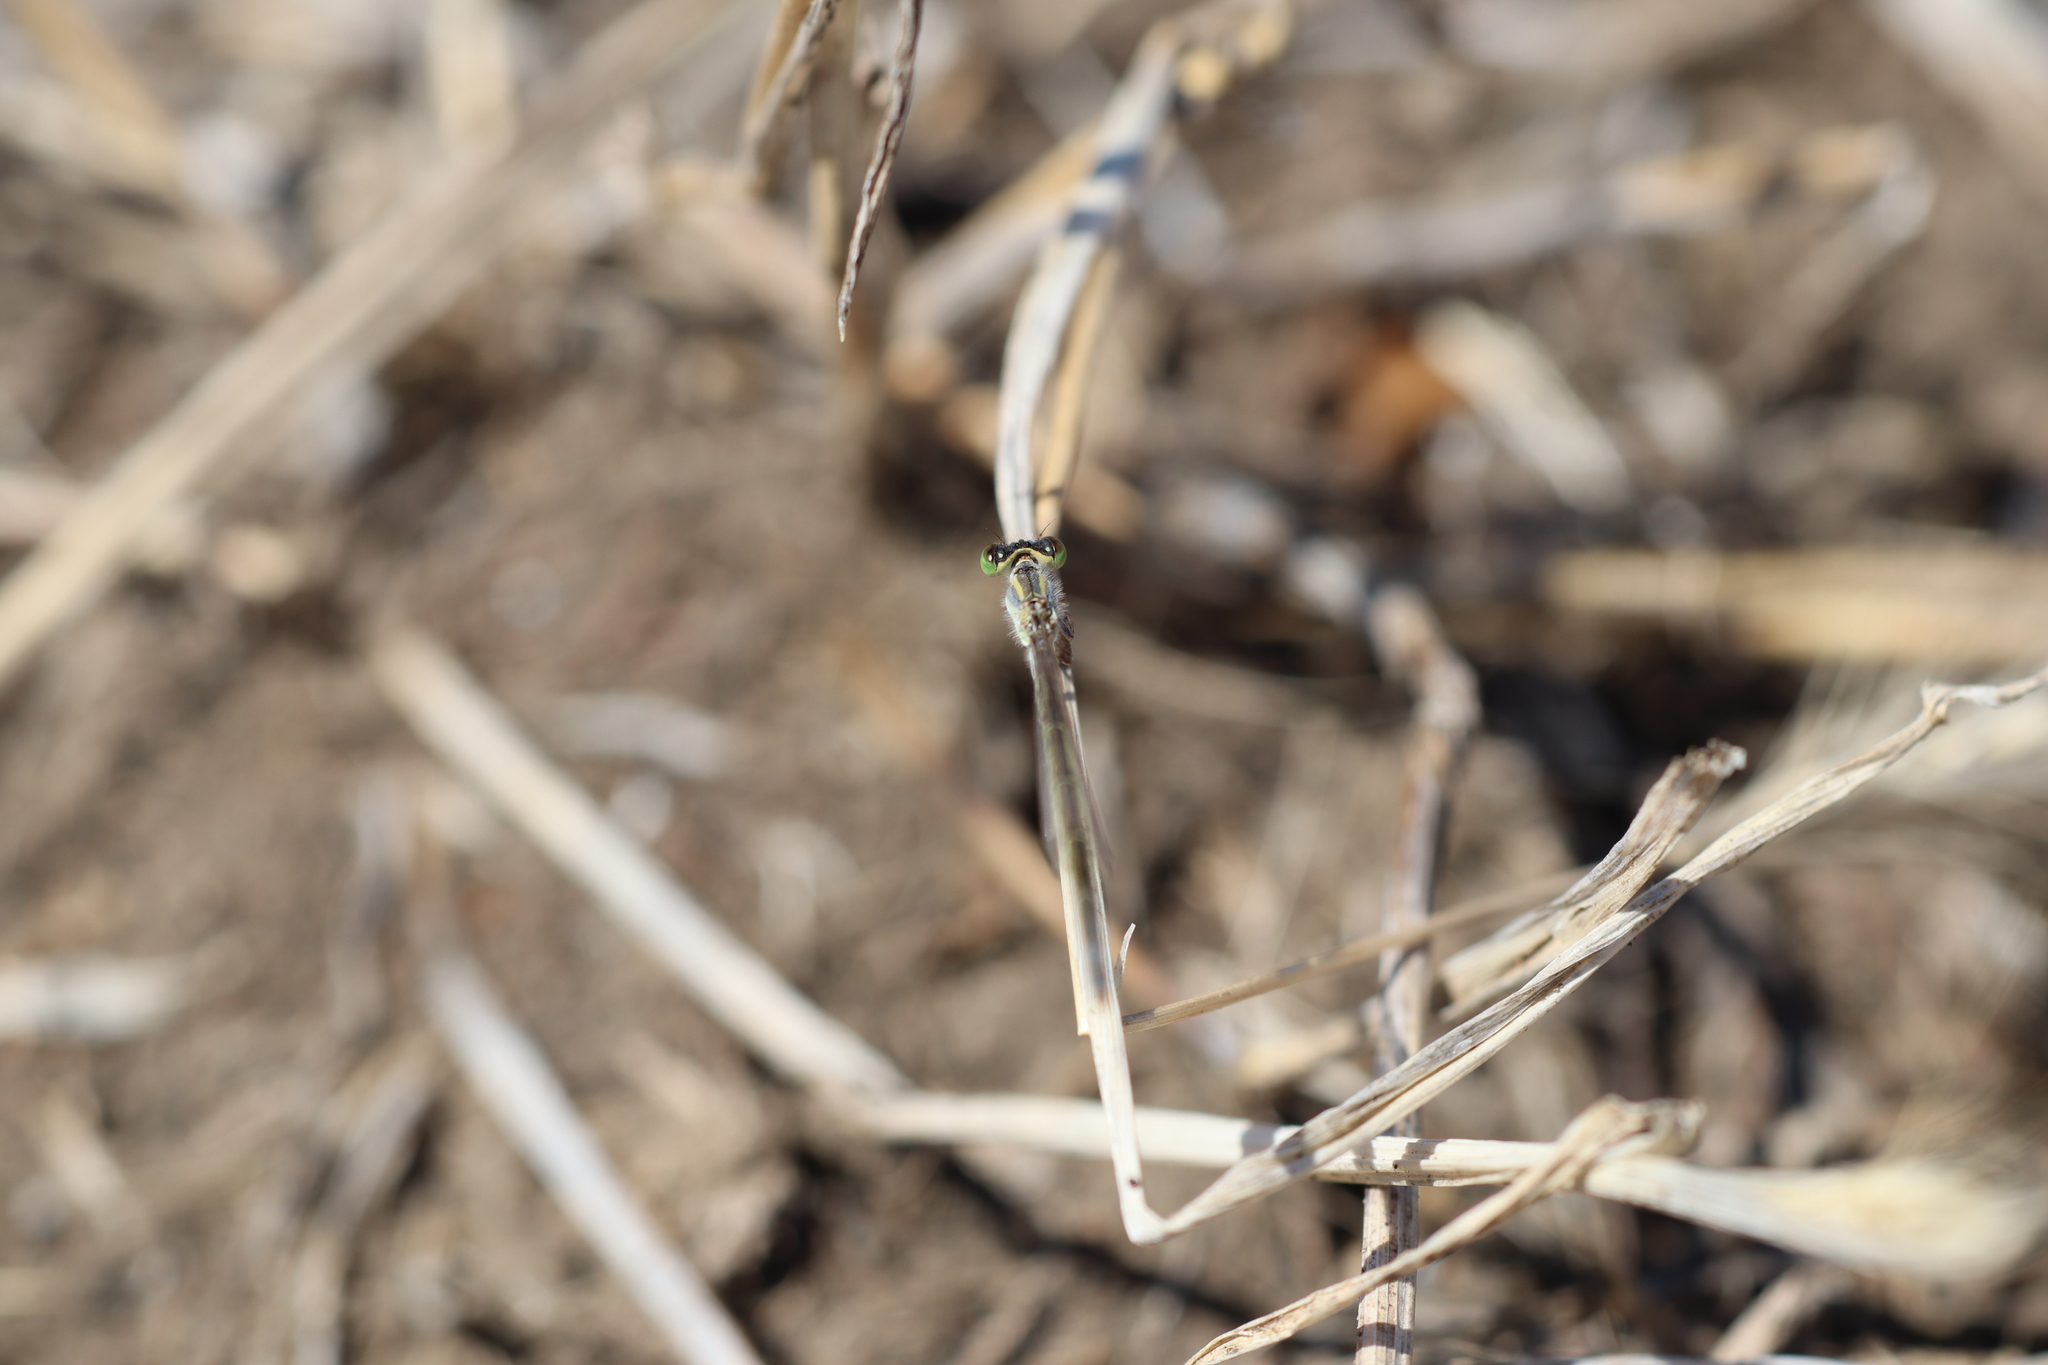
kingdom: Animalia
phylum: Arthropoda
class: Insecta
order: Odonata
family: Coenagrionidae
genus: Ischnura
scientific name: Ischnura aurora
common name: Gossamer damselfly
